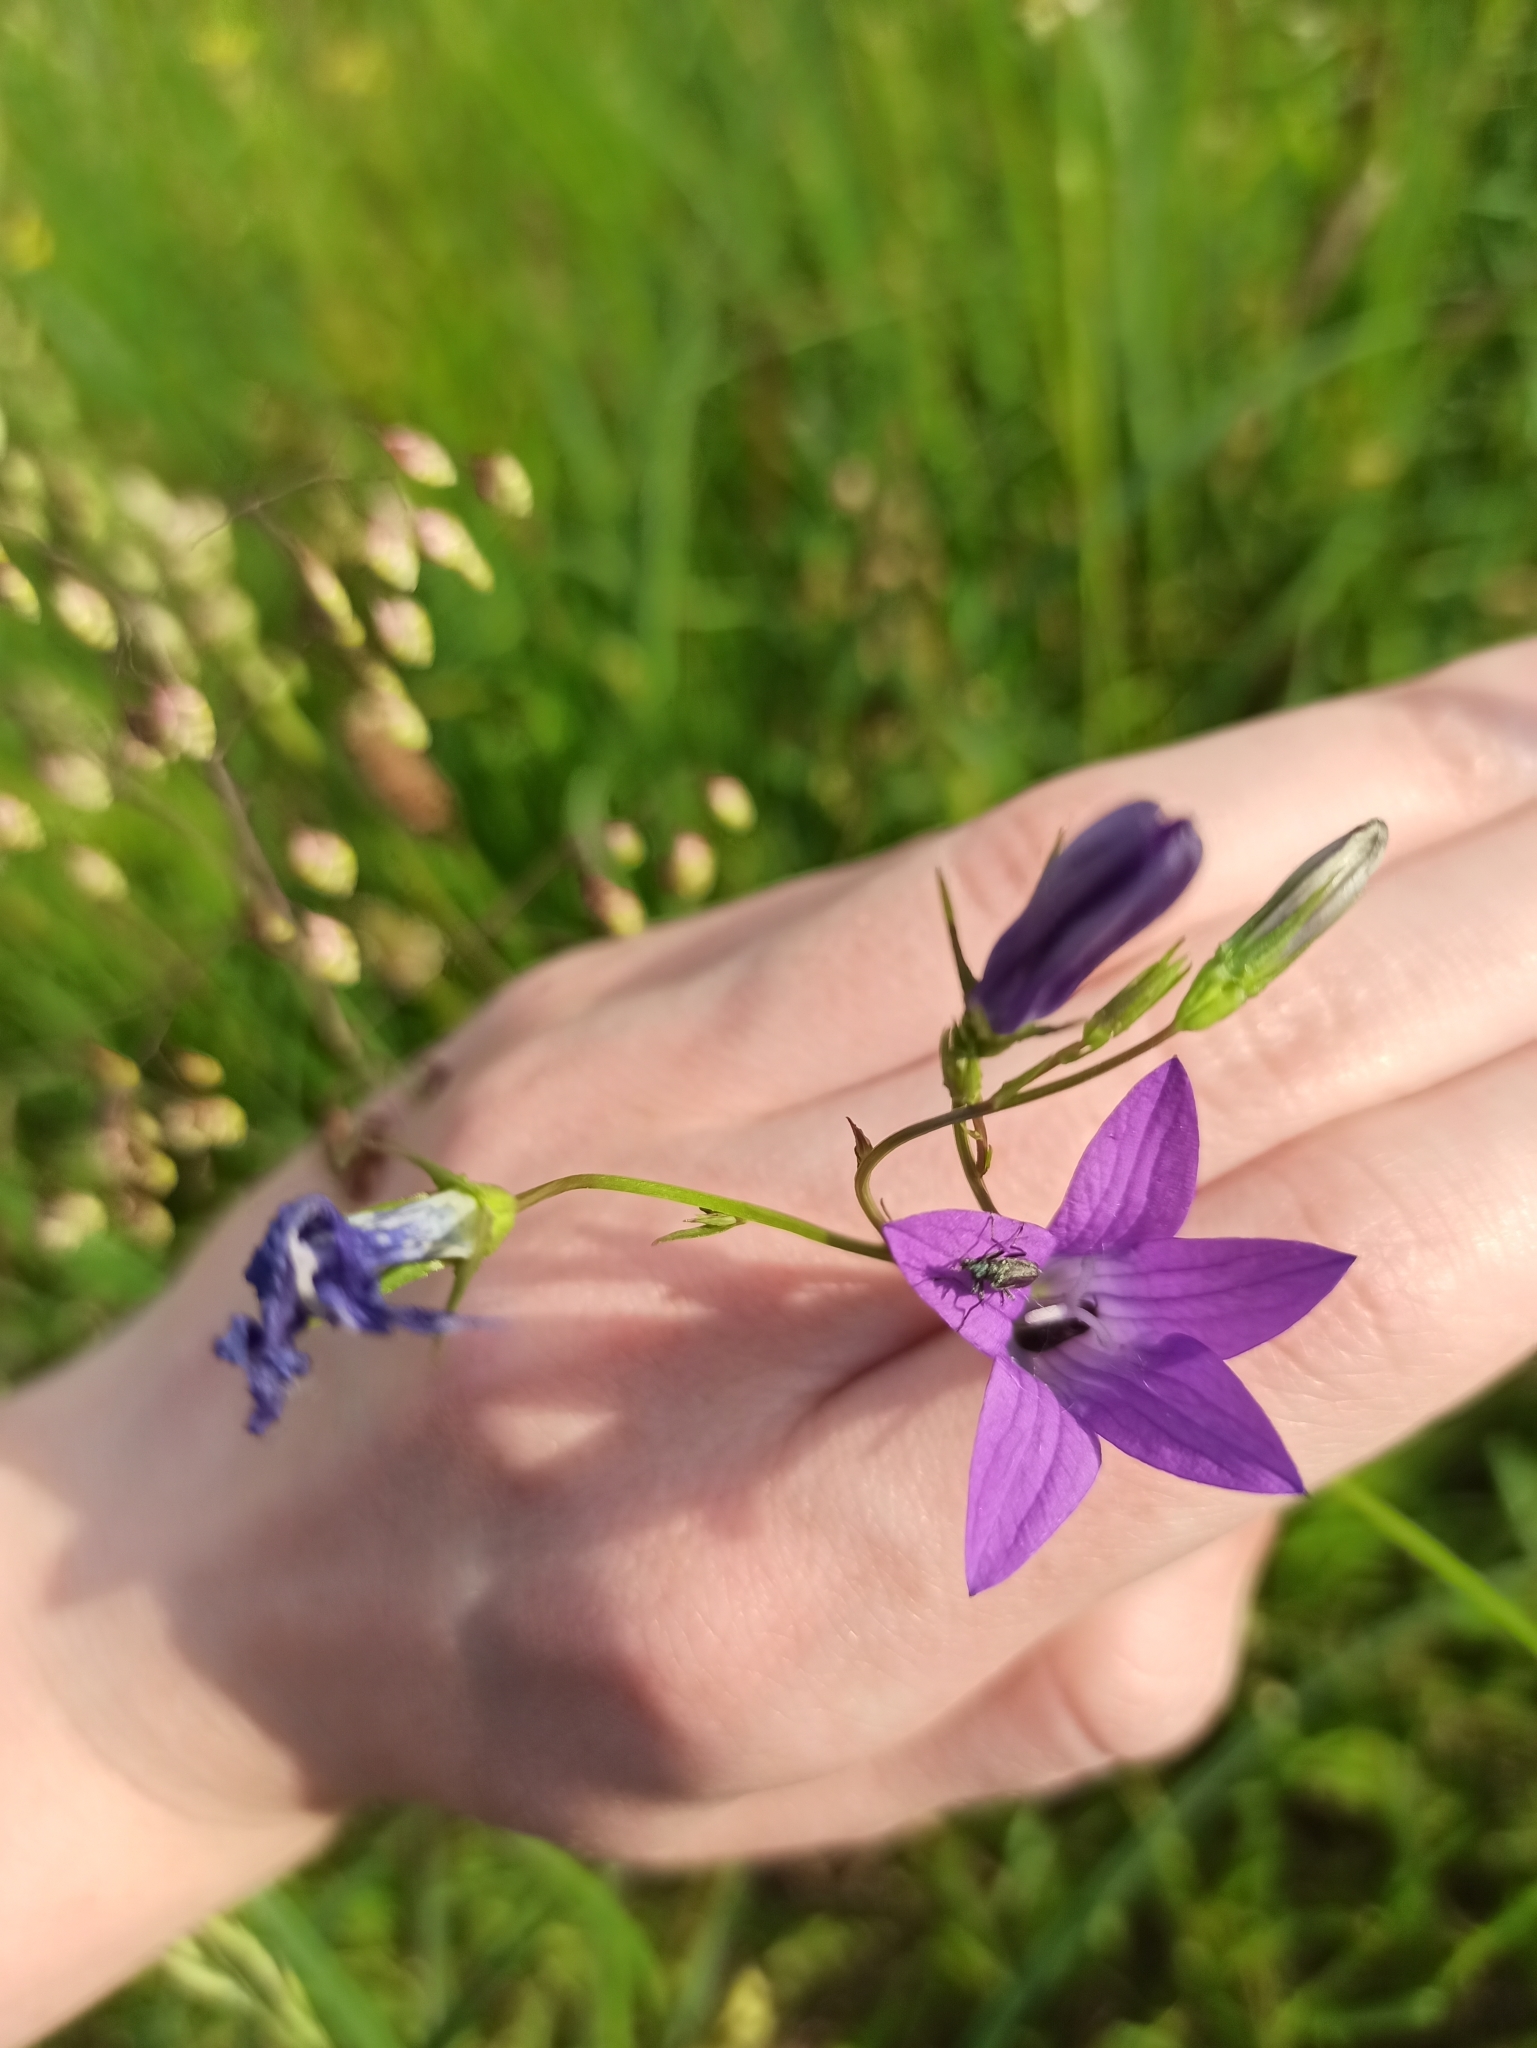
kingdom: Plantae
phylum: Tracheophyta
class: Magnoliopsida
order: Asterales
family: Campanulaceae
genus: Campanula
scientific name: Campanula patula
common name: Spreading bellflower
